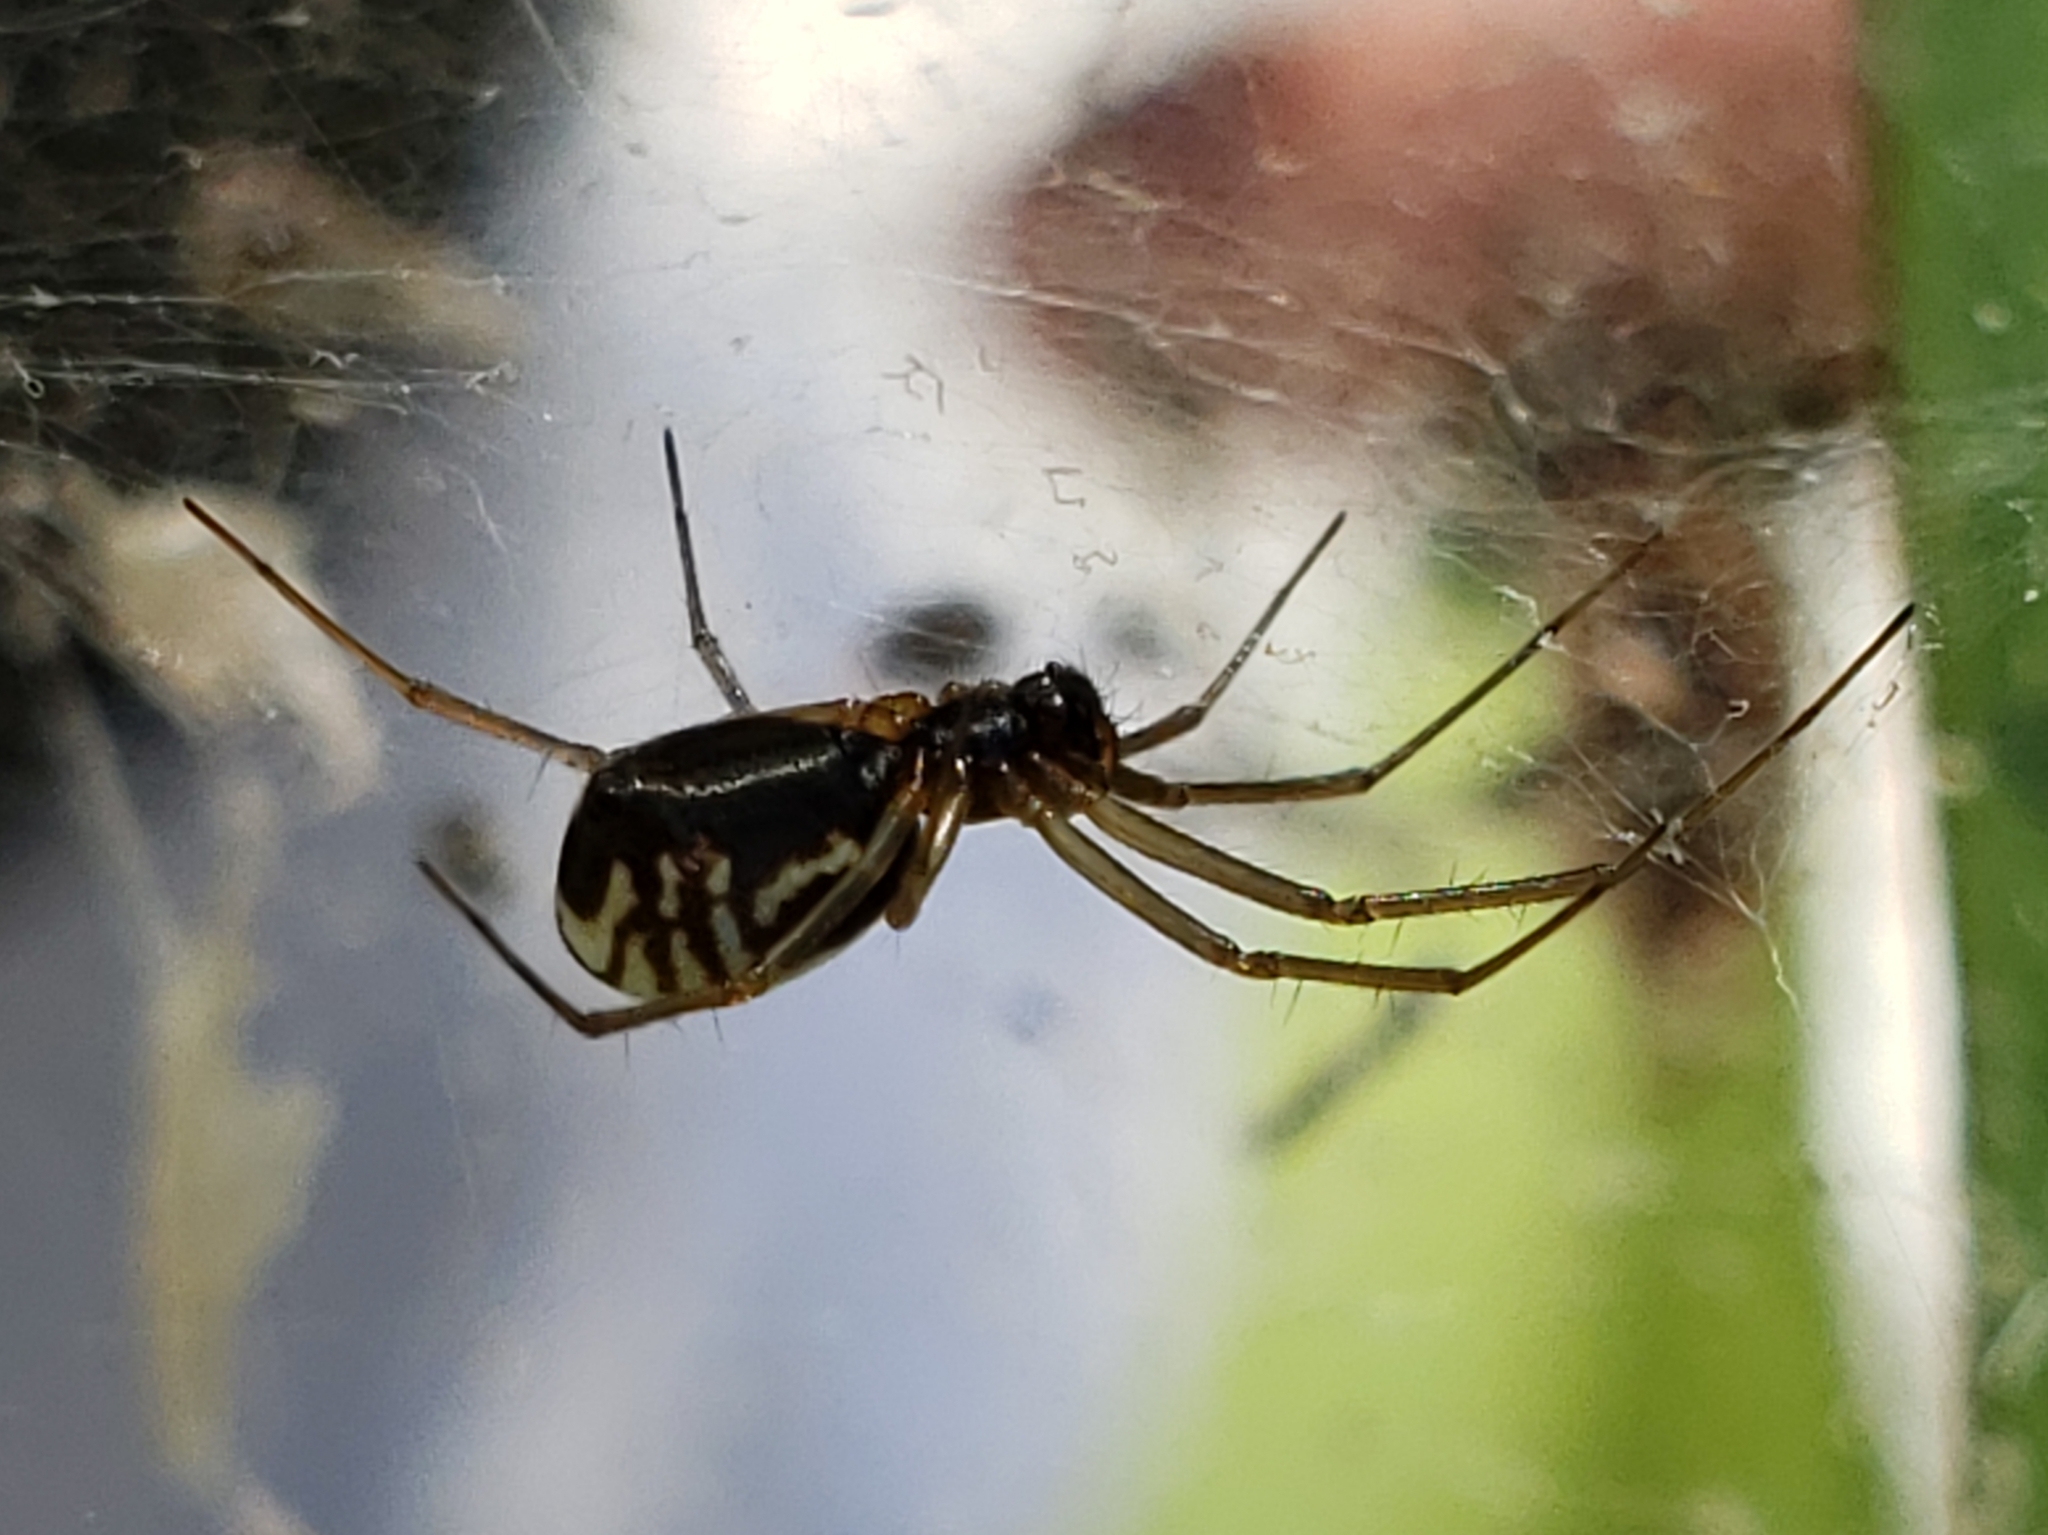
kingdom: Animalia
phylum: Arthropoda
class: Arachnida
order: Araneae
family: Linyphiidae
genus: Frontinella
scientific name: Frontinella pyramitela
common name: Bowl-and-doily spider
